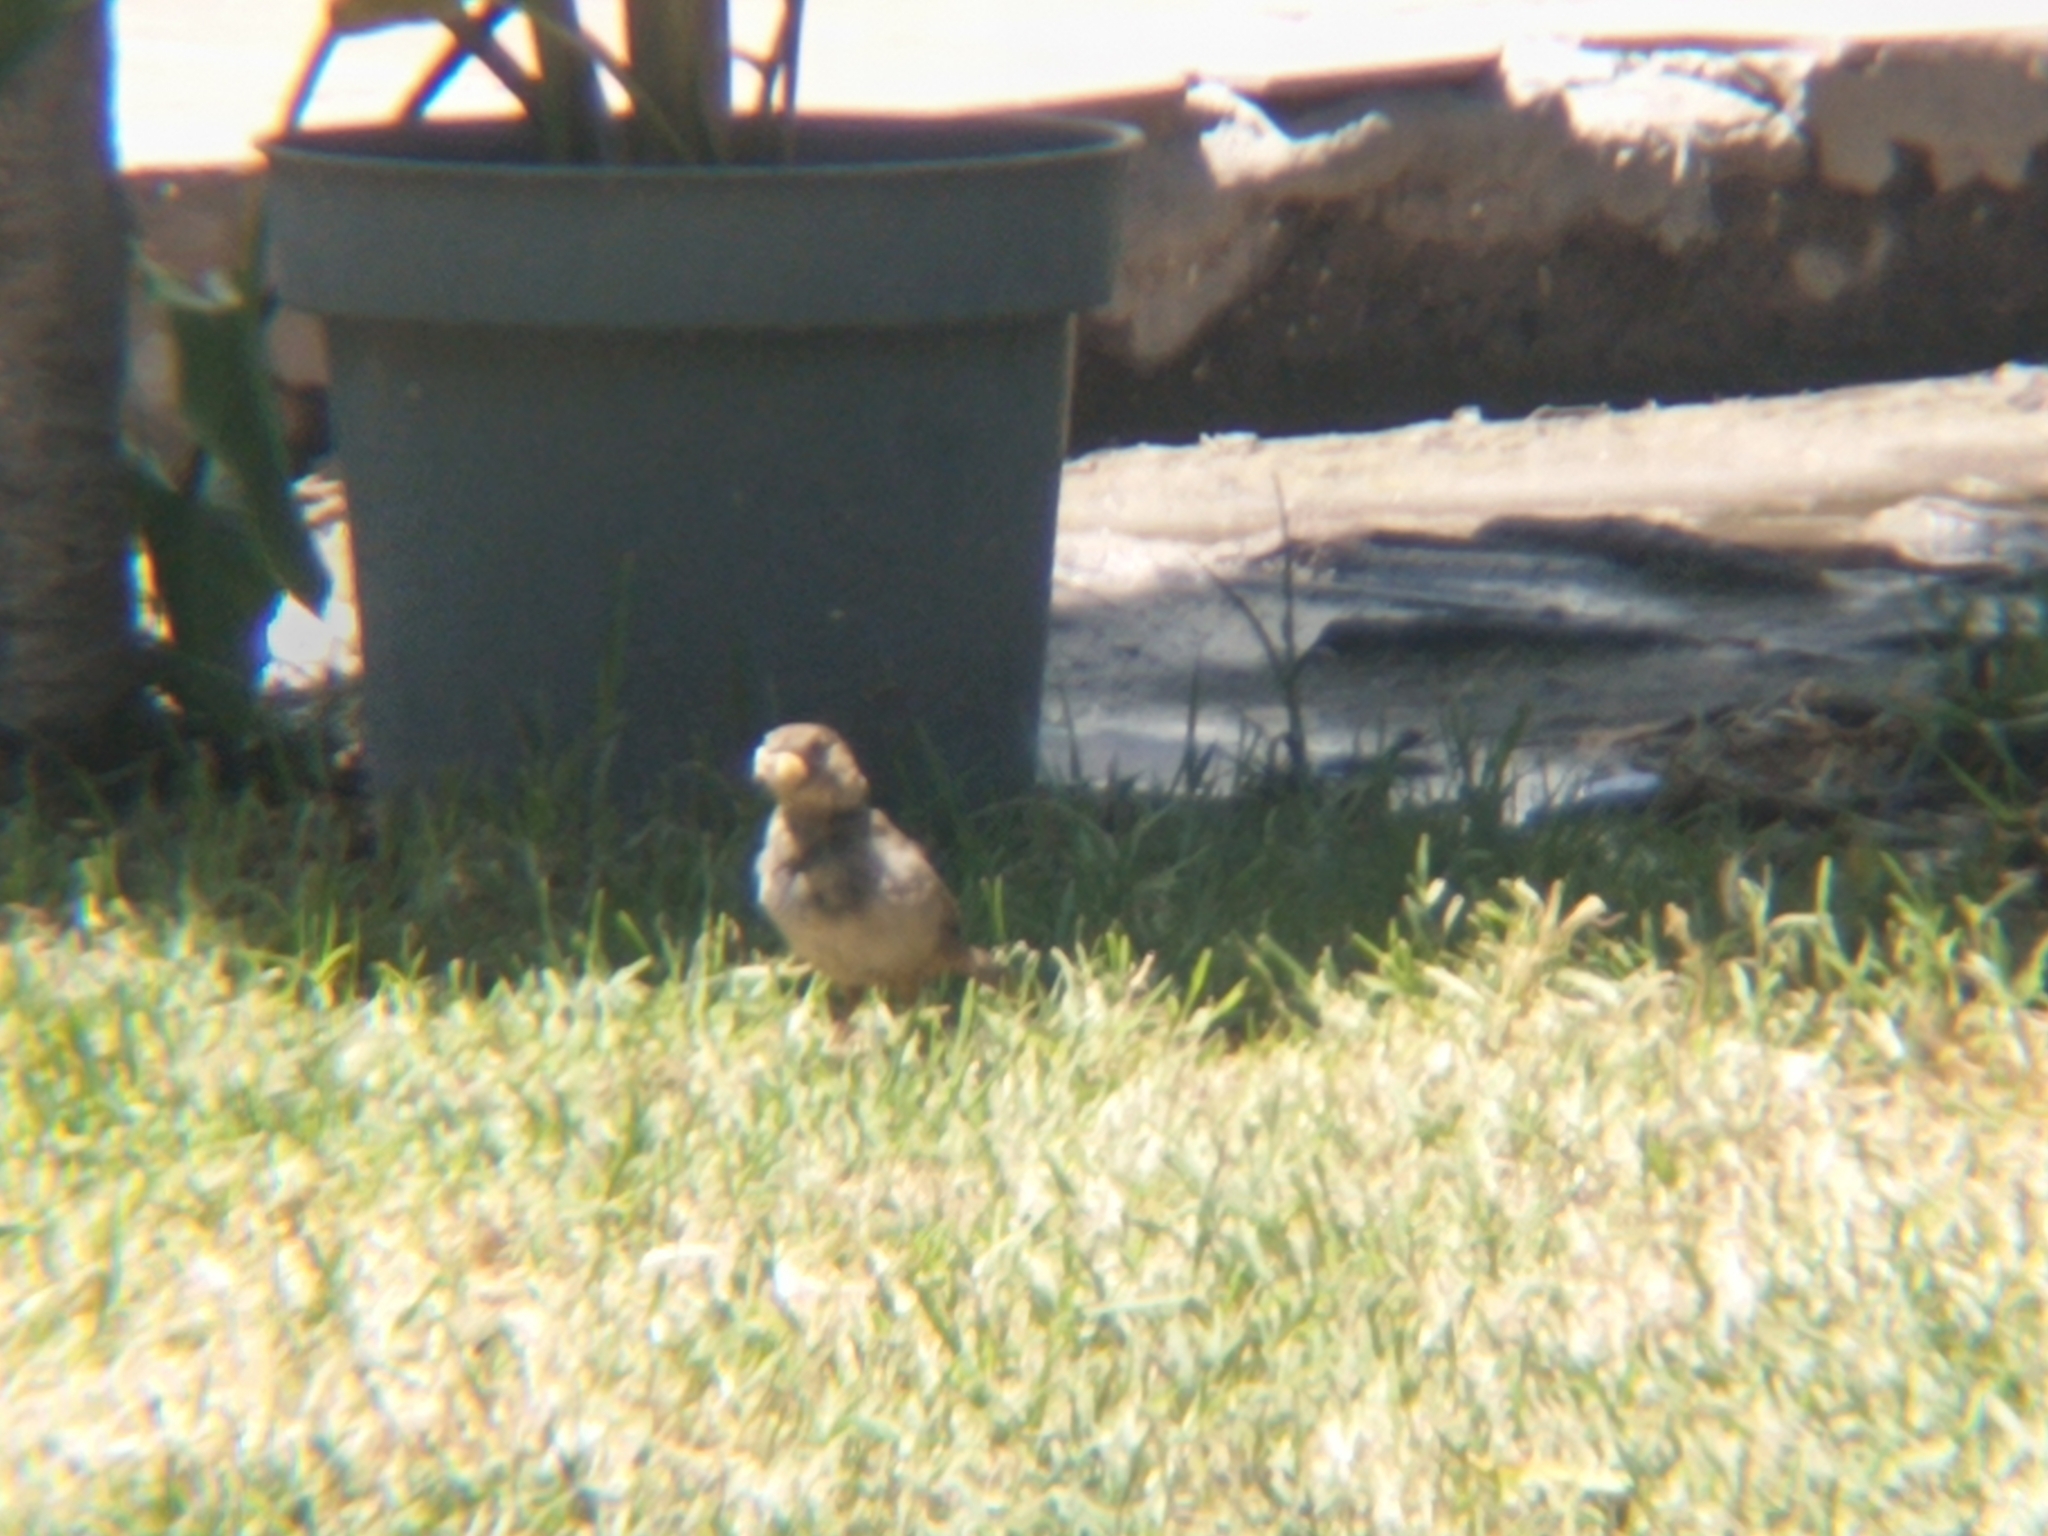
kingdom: Animalia
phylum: Chordata
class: Aves
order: Passeriformes
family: Passerellidae
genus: Melozone
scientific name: Melozone fusca
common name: Canyon towhee
